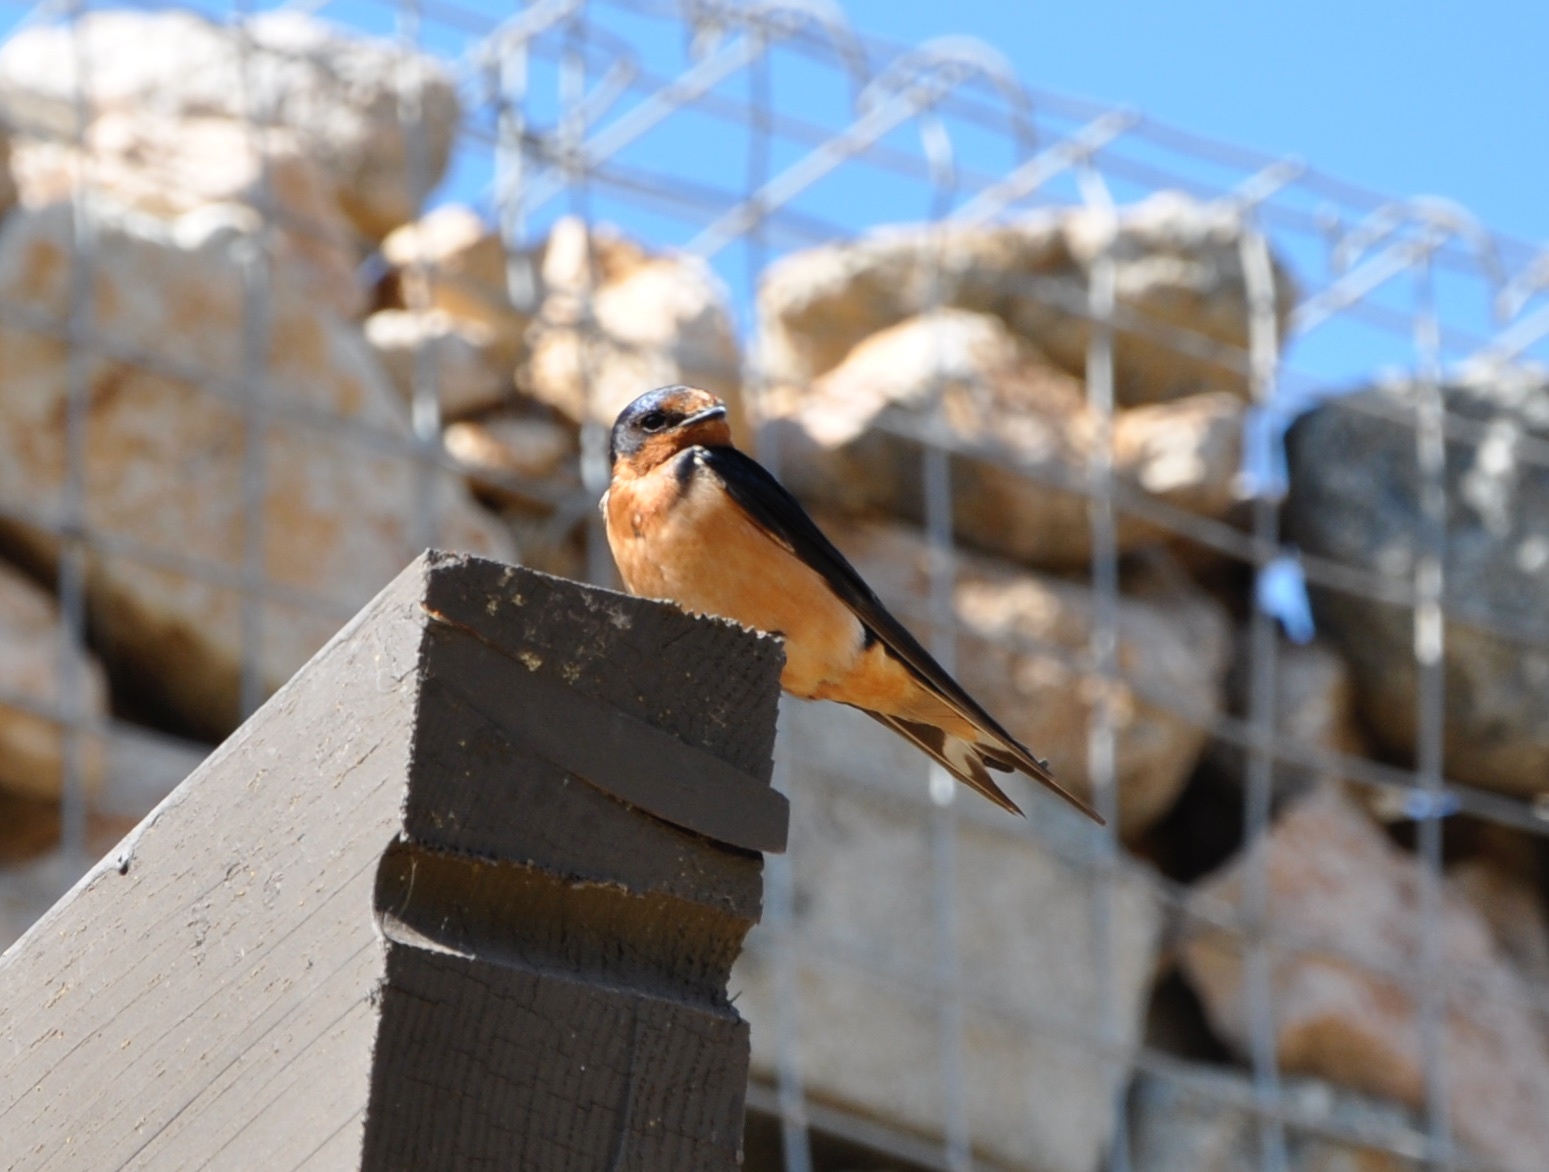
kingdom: Animalia
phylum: Chordata
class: Aves
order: Passeriformes
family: Hirundinidae
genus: Hirundo
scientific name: Hirundo rustica
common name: Barn swallow
